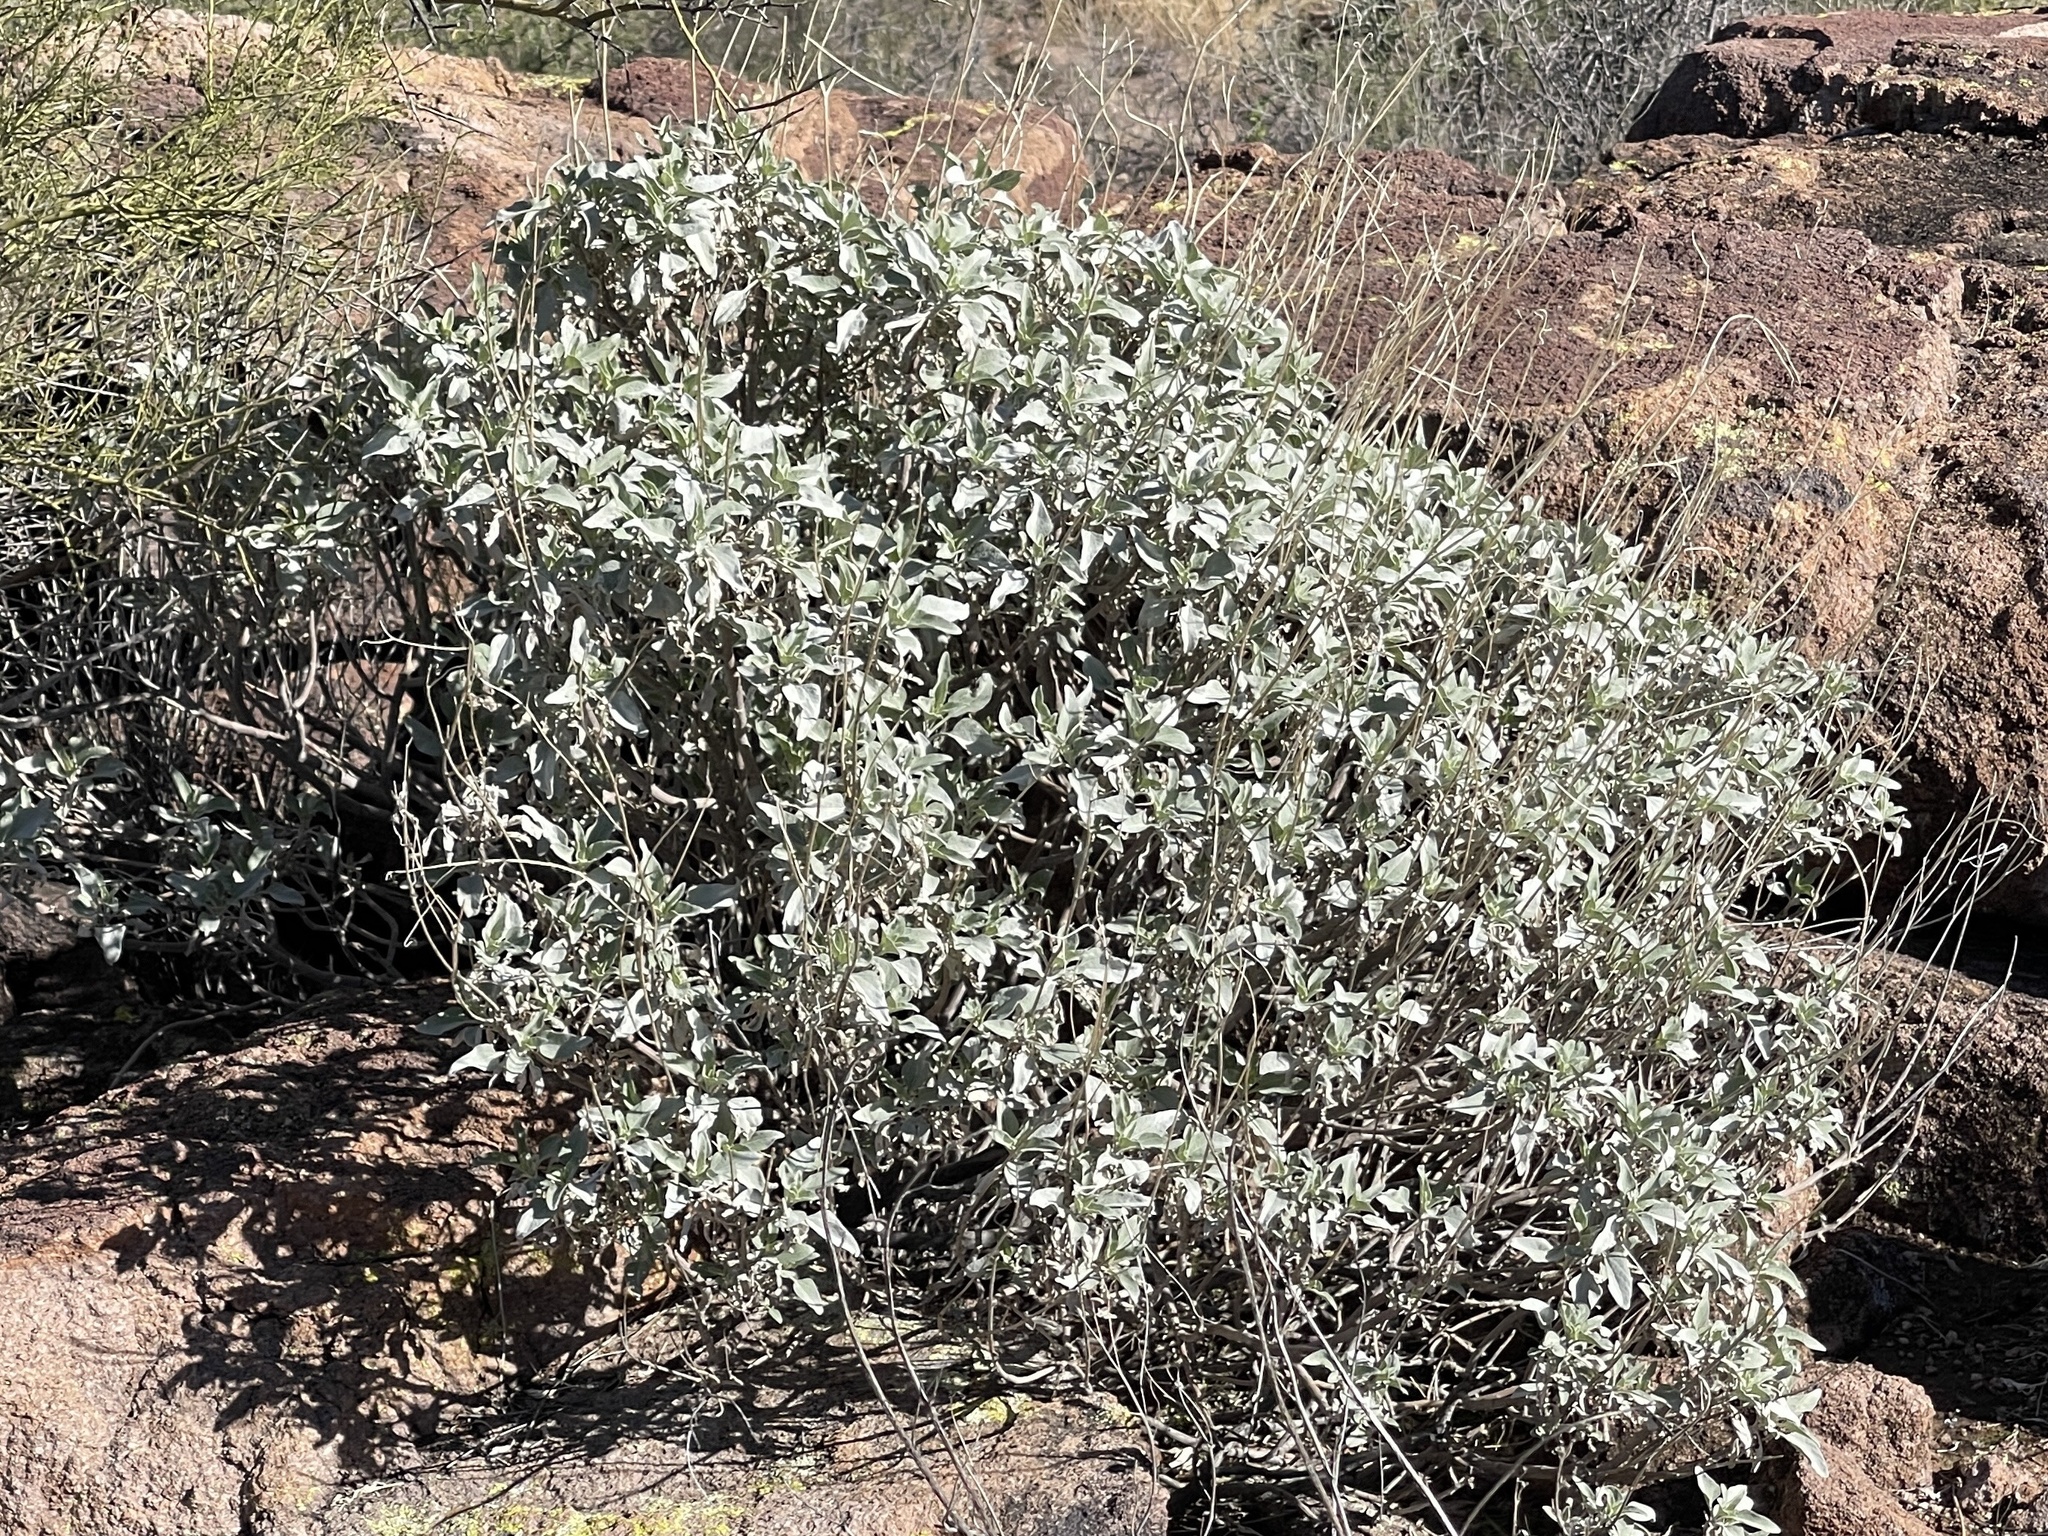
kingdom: Plantae
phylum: Tracheophyta
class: Magnoliopsida
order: Asterales
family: Asteraceae
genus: Encelia
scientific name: Encelia farinosa
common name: Brittlebush
